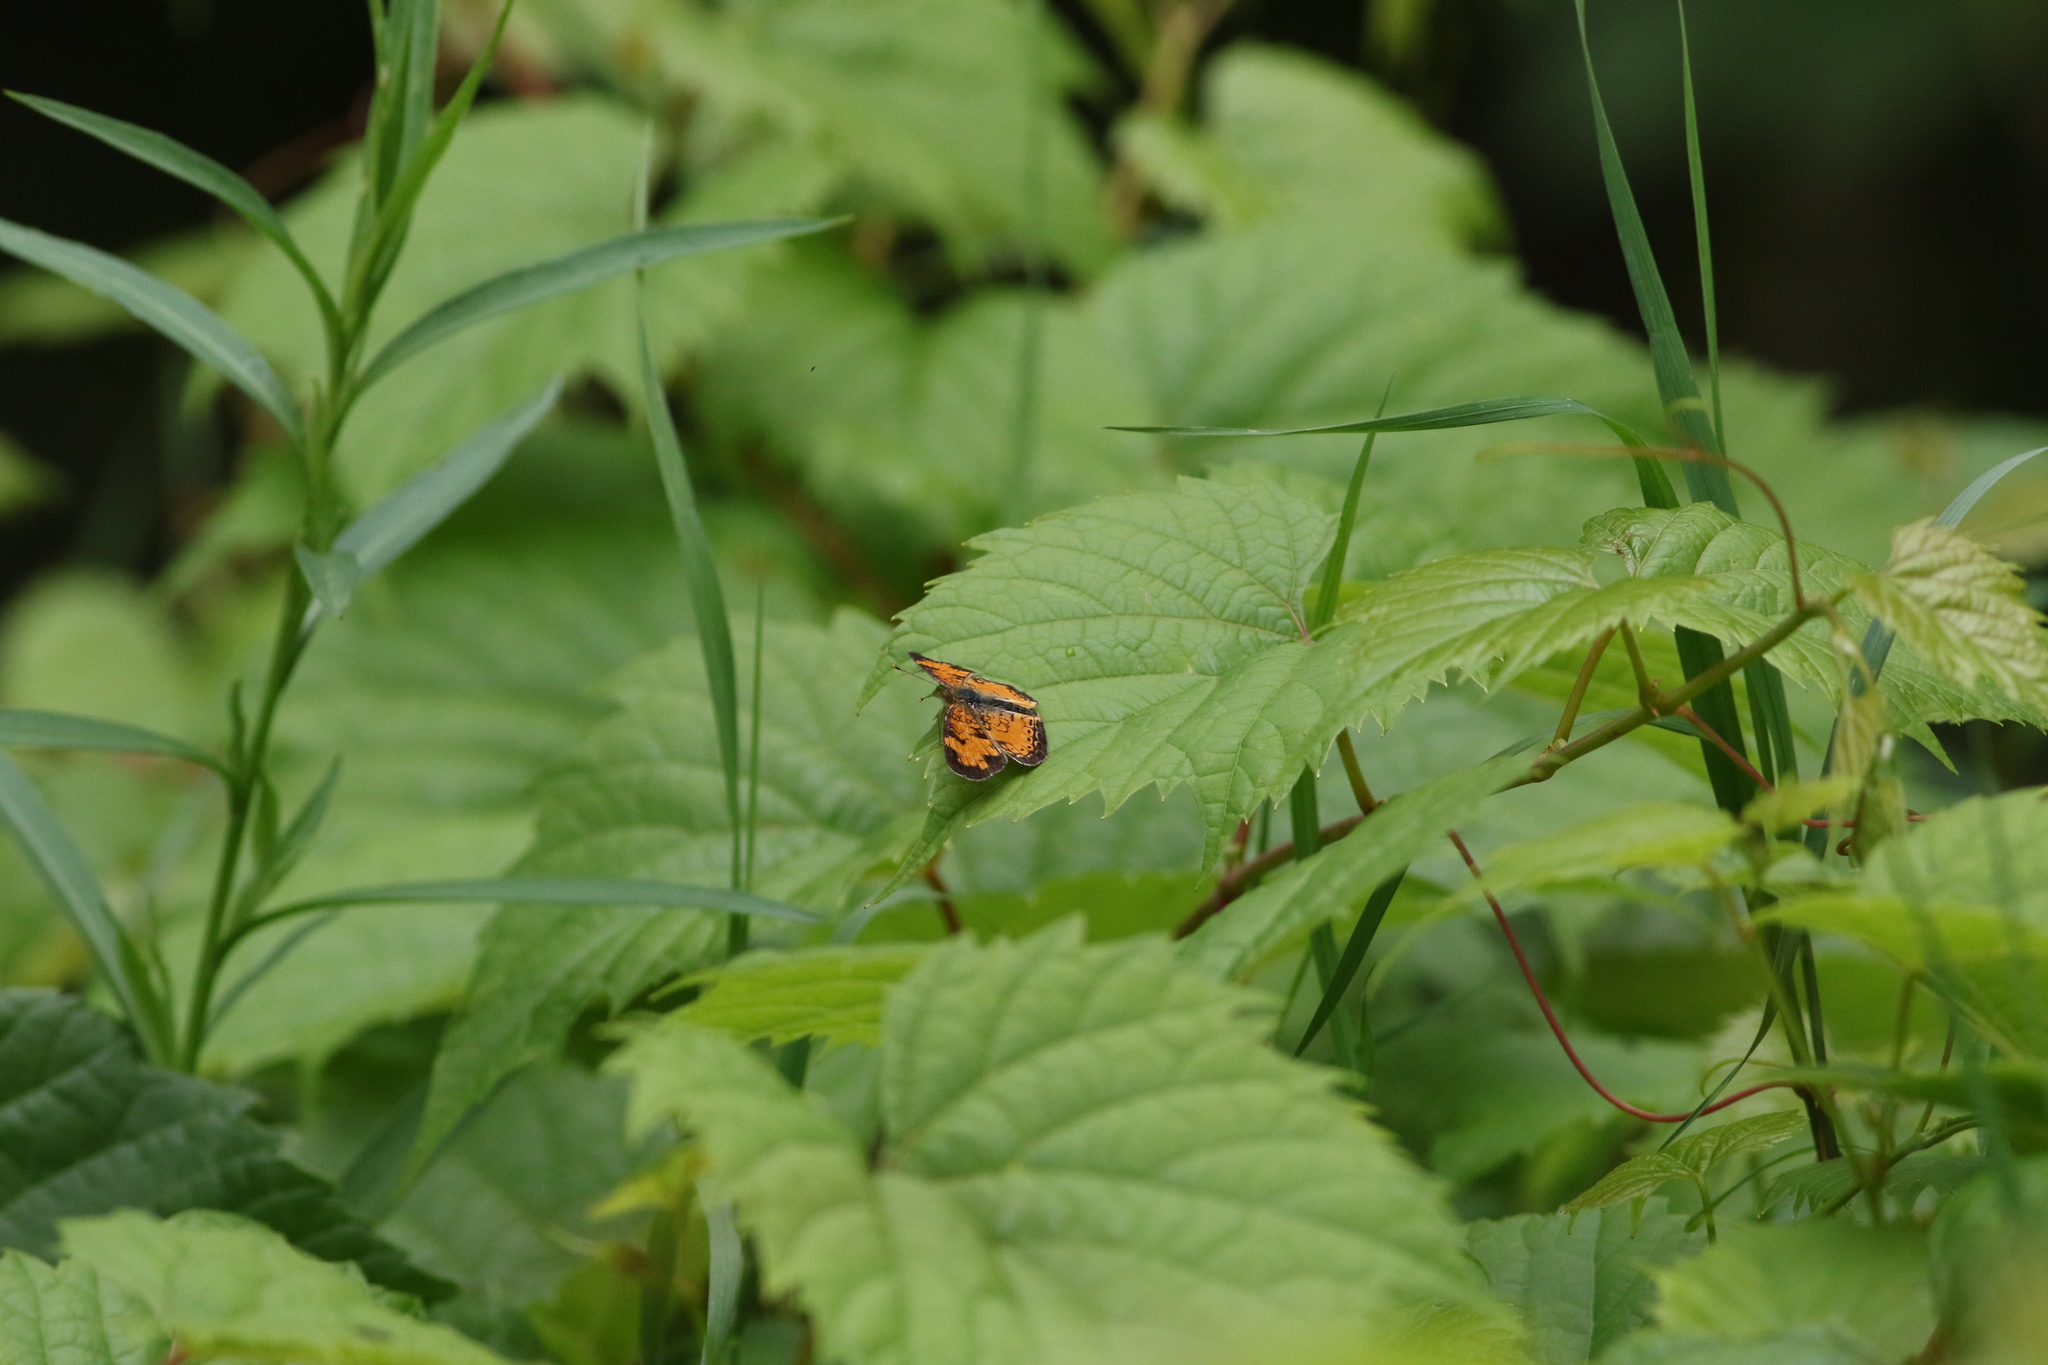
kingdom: Animalia
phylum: Arthropoda
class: Insecta
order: Lepidoptera
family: Nymphalidae
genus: Phyciodes
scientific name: Phyciodes tharos
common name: Pearl crescent
